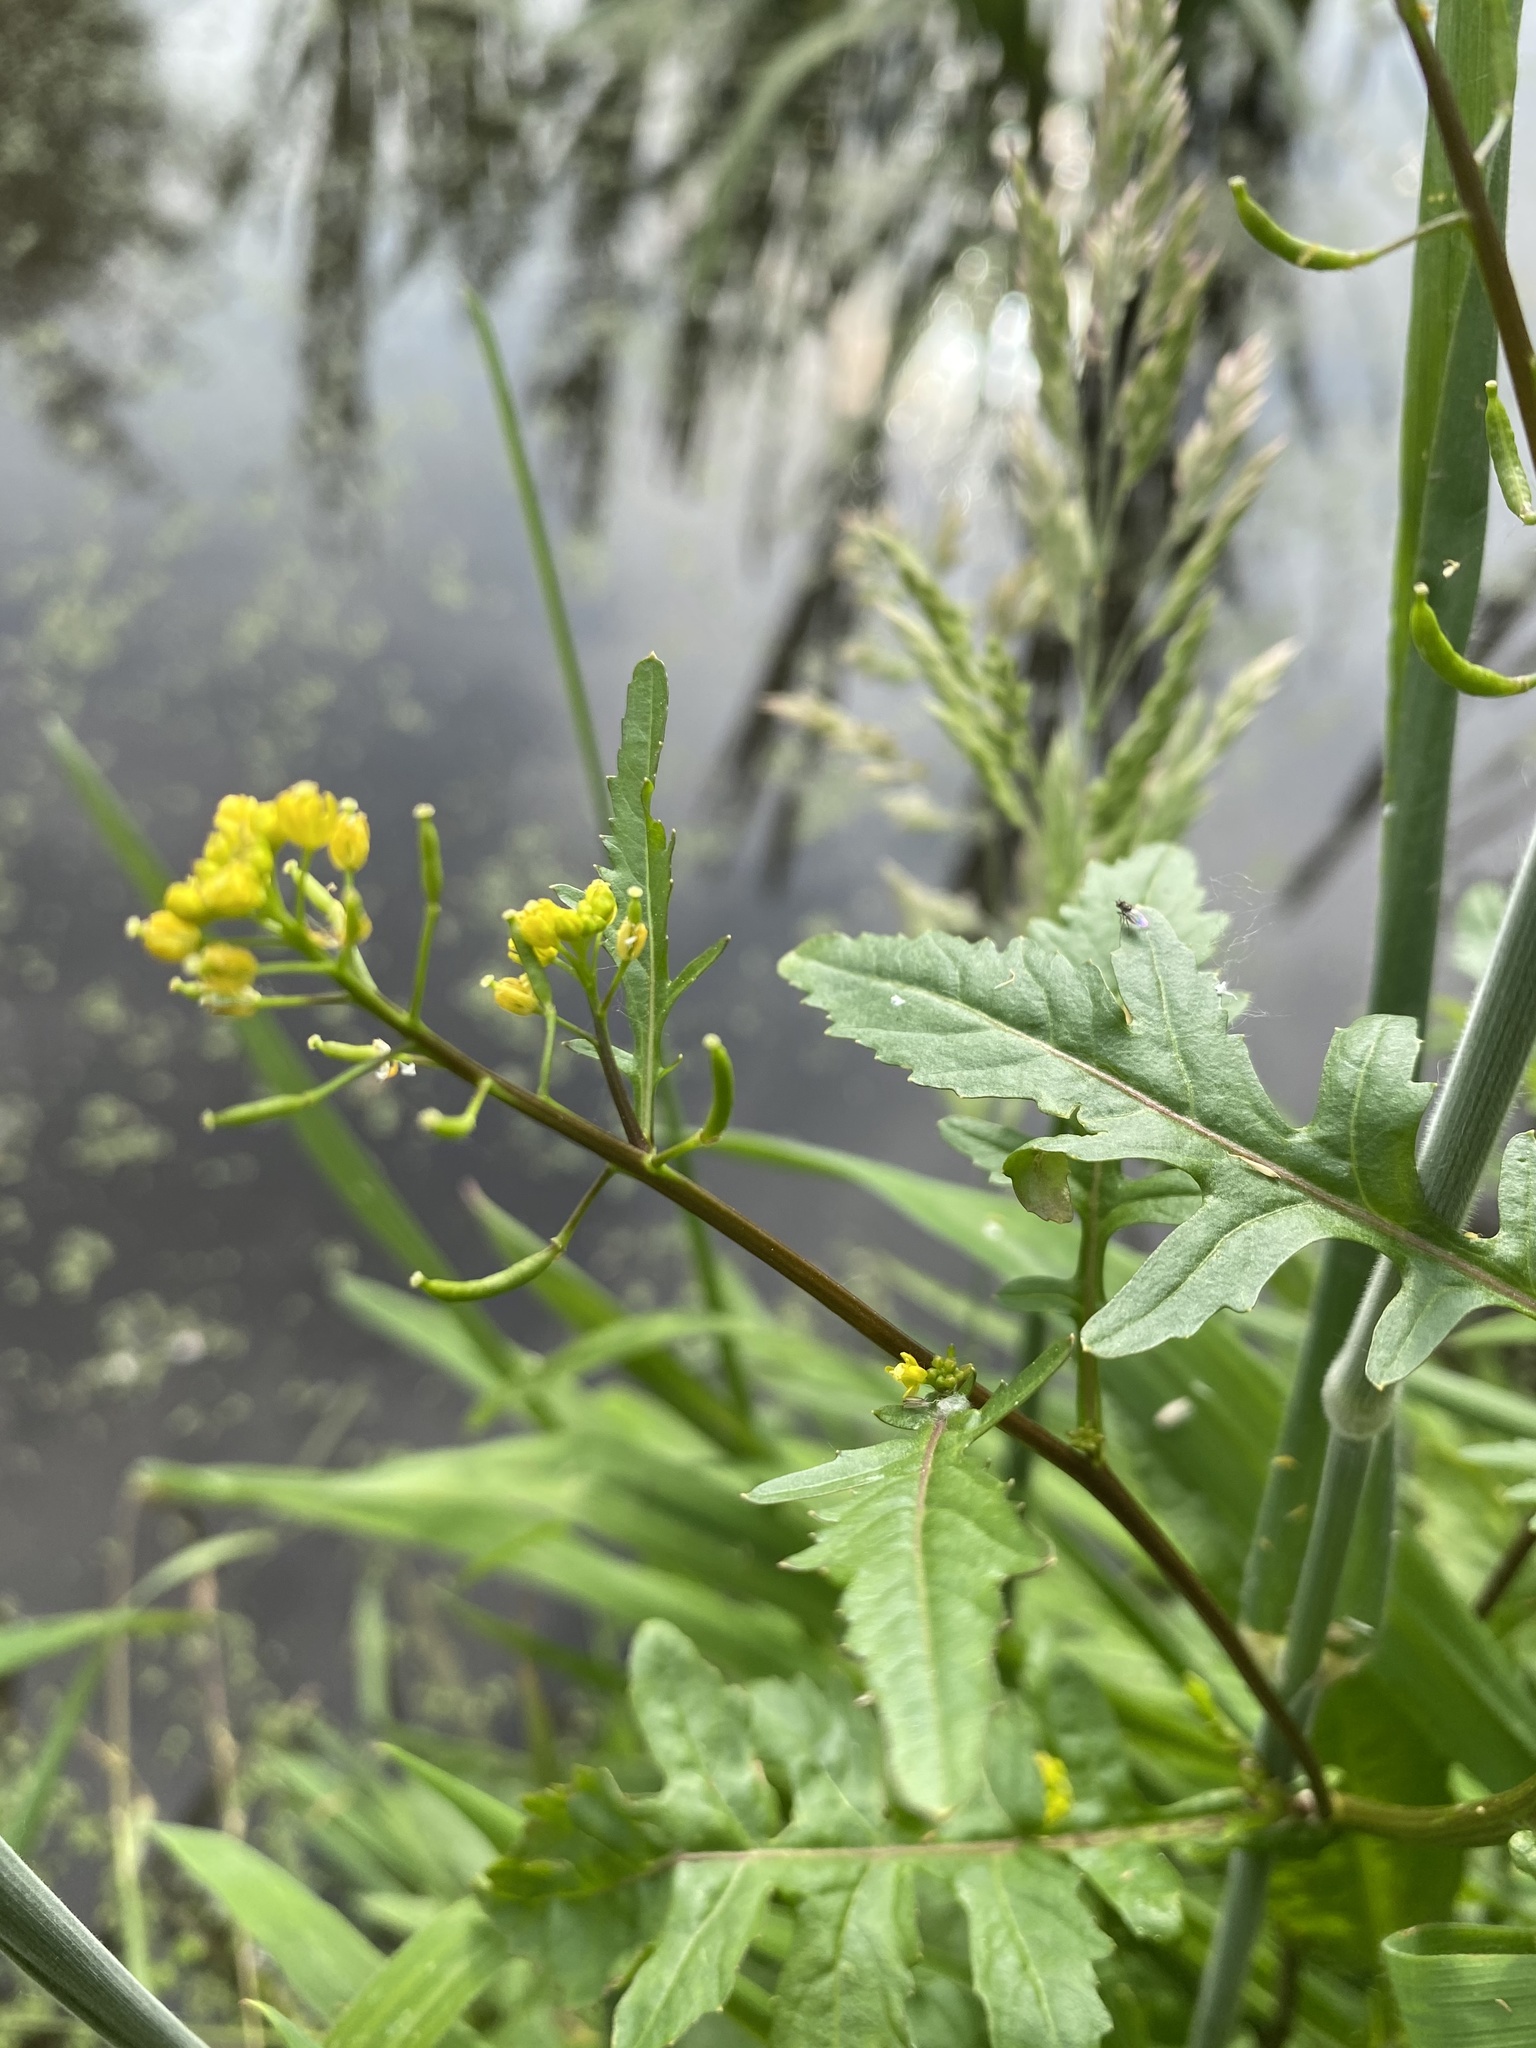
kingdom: Plantae
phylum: Tracheophyta
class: Magnoliopsida
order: Brassicales
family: Brassicaceae
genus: Rorippa
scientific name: Rorippa palustris
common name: Marsh yellow-cress
